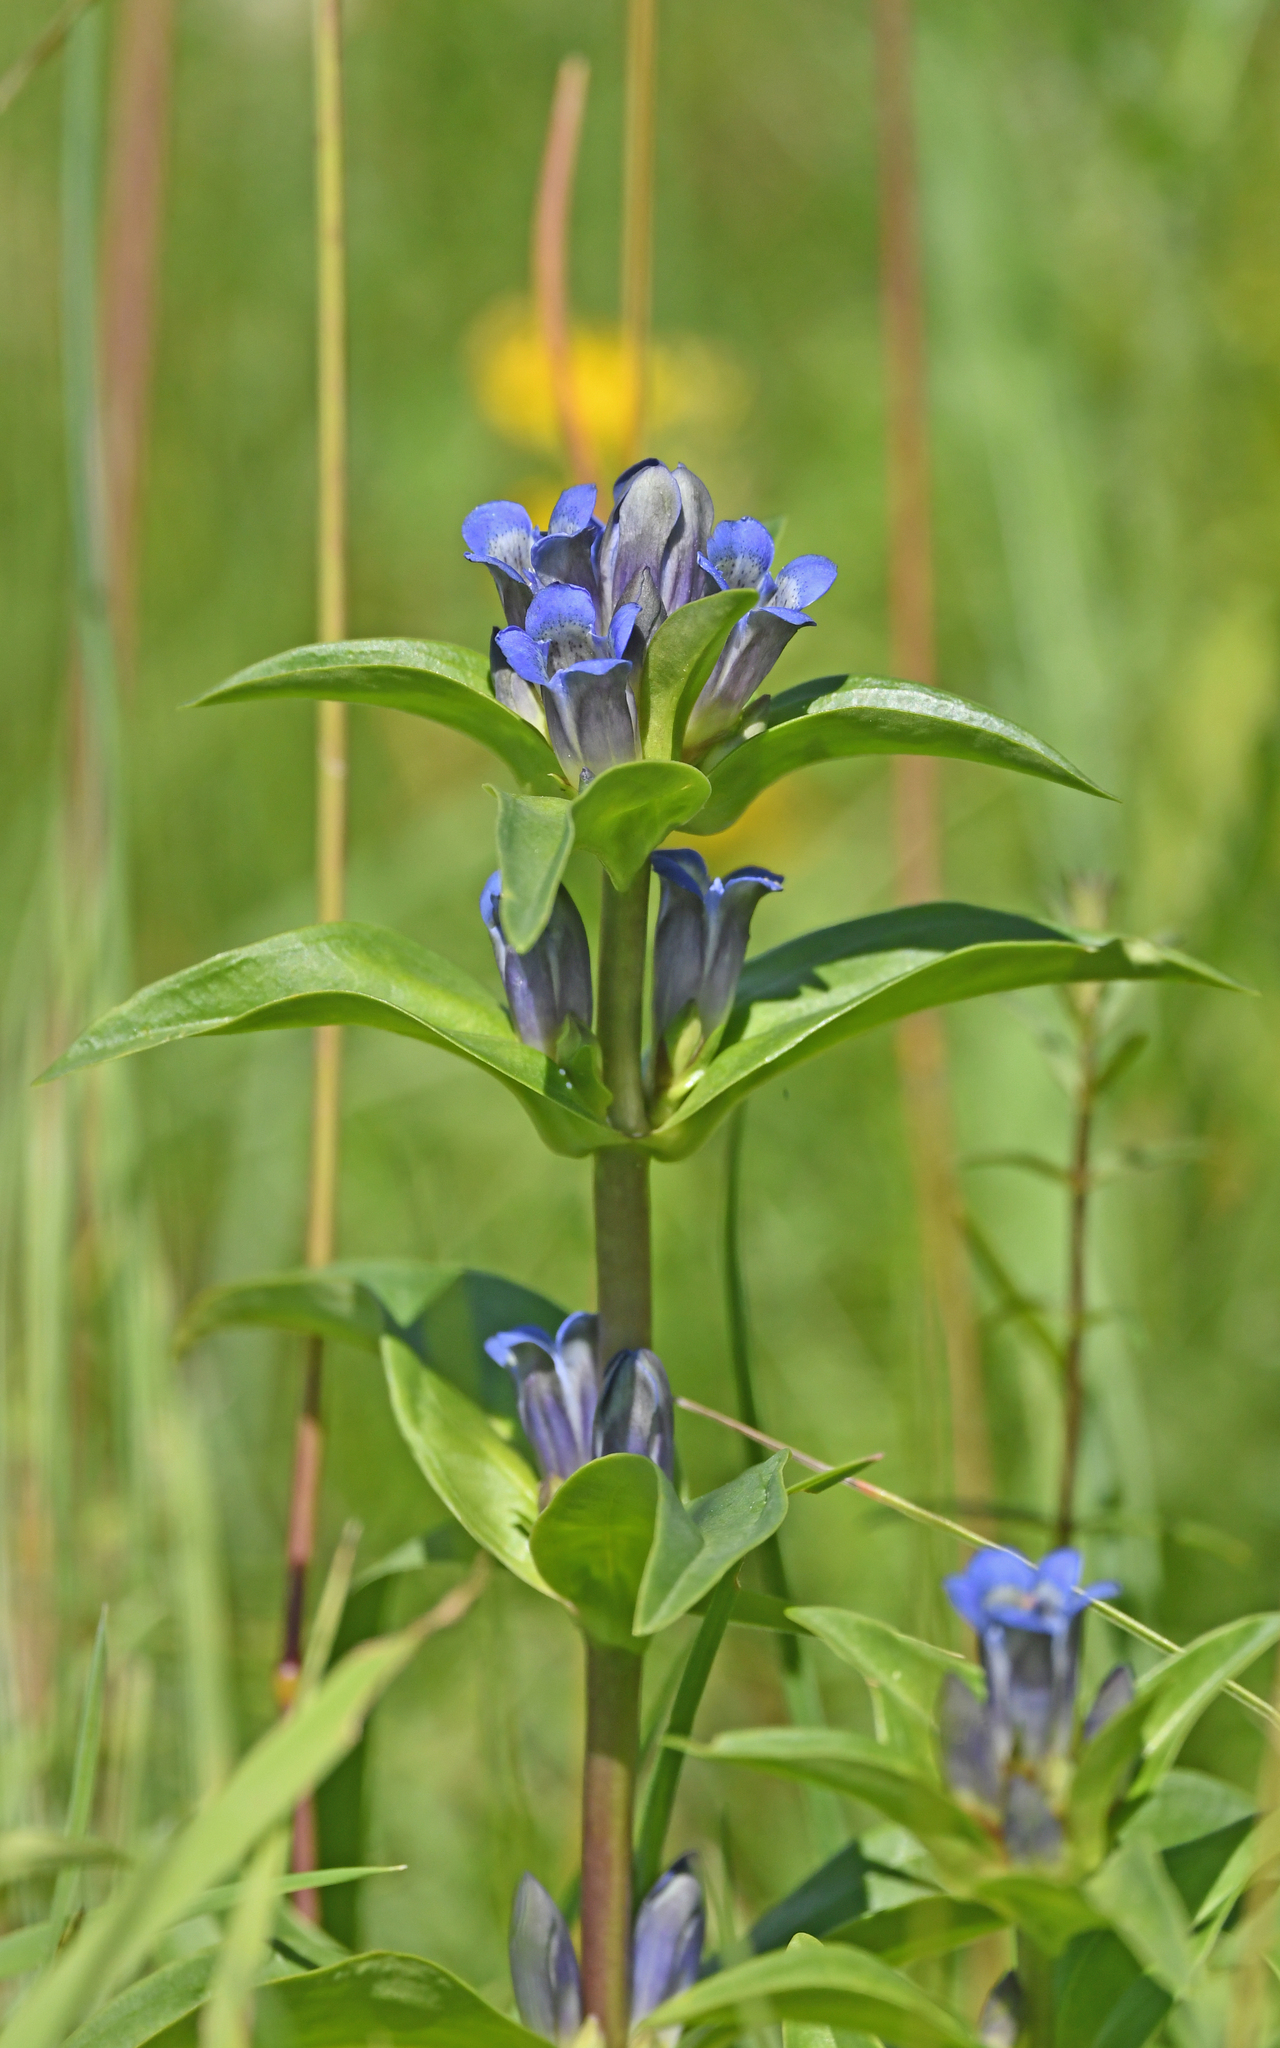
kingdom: Plantae
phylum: Tracheophyta
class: Magnoliopsida
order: Gentianales
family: Gentianaceae
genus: Gentiana
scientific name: Gentiana cruciata
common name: Cross gentian
